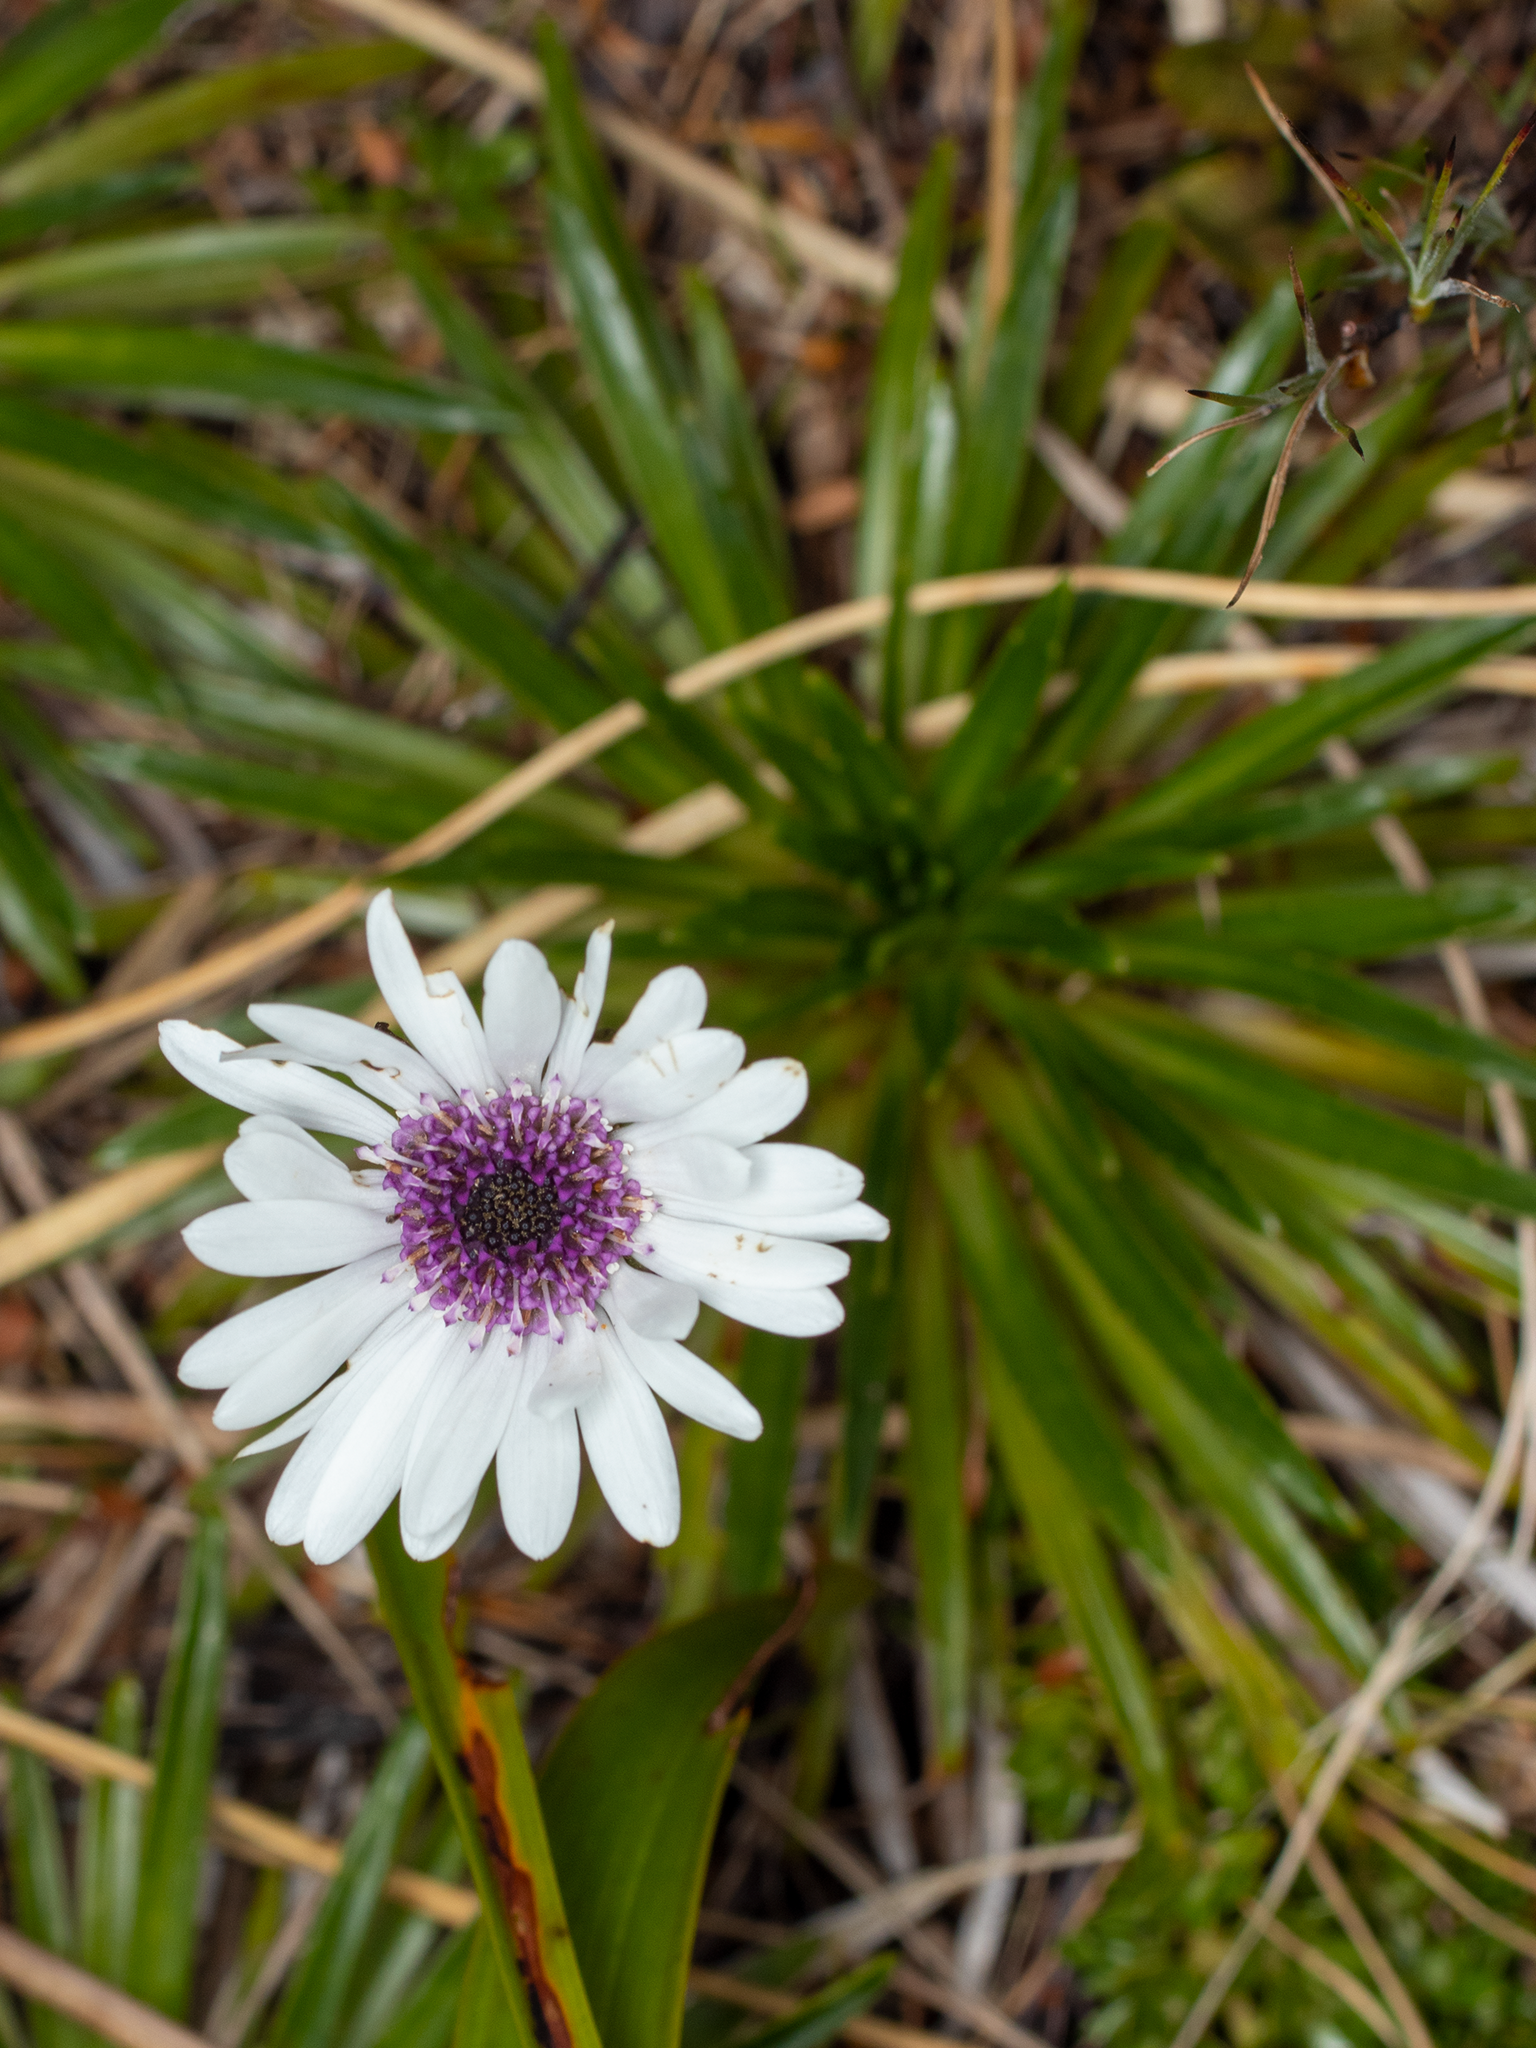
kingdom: Plantae
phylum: Tracheophyta
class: Magnoliopsida
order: Asterales
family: Asteraceae
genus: Damnamenia
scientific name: Damnamenia vernicosa
